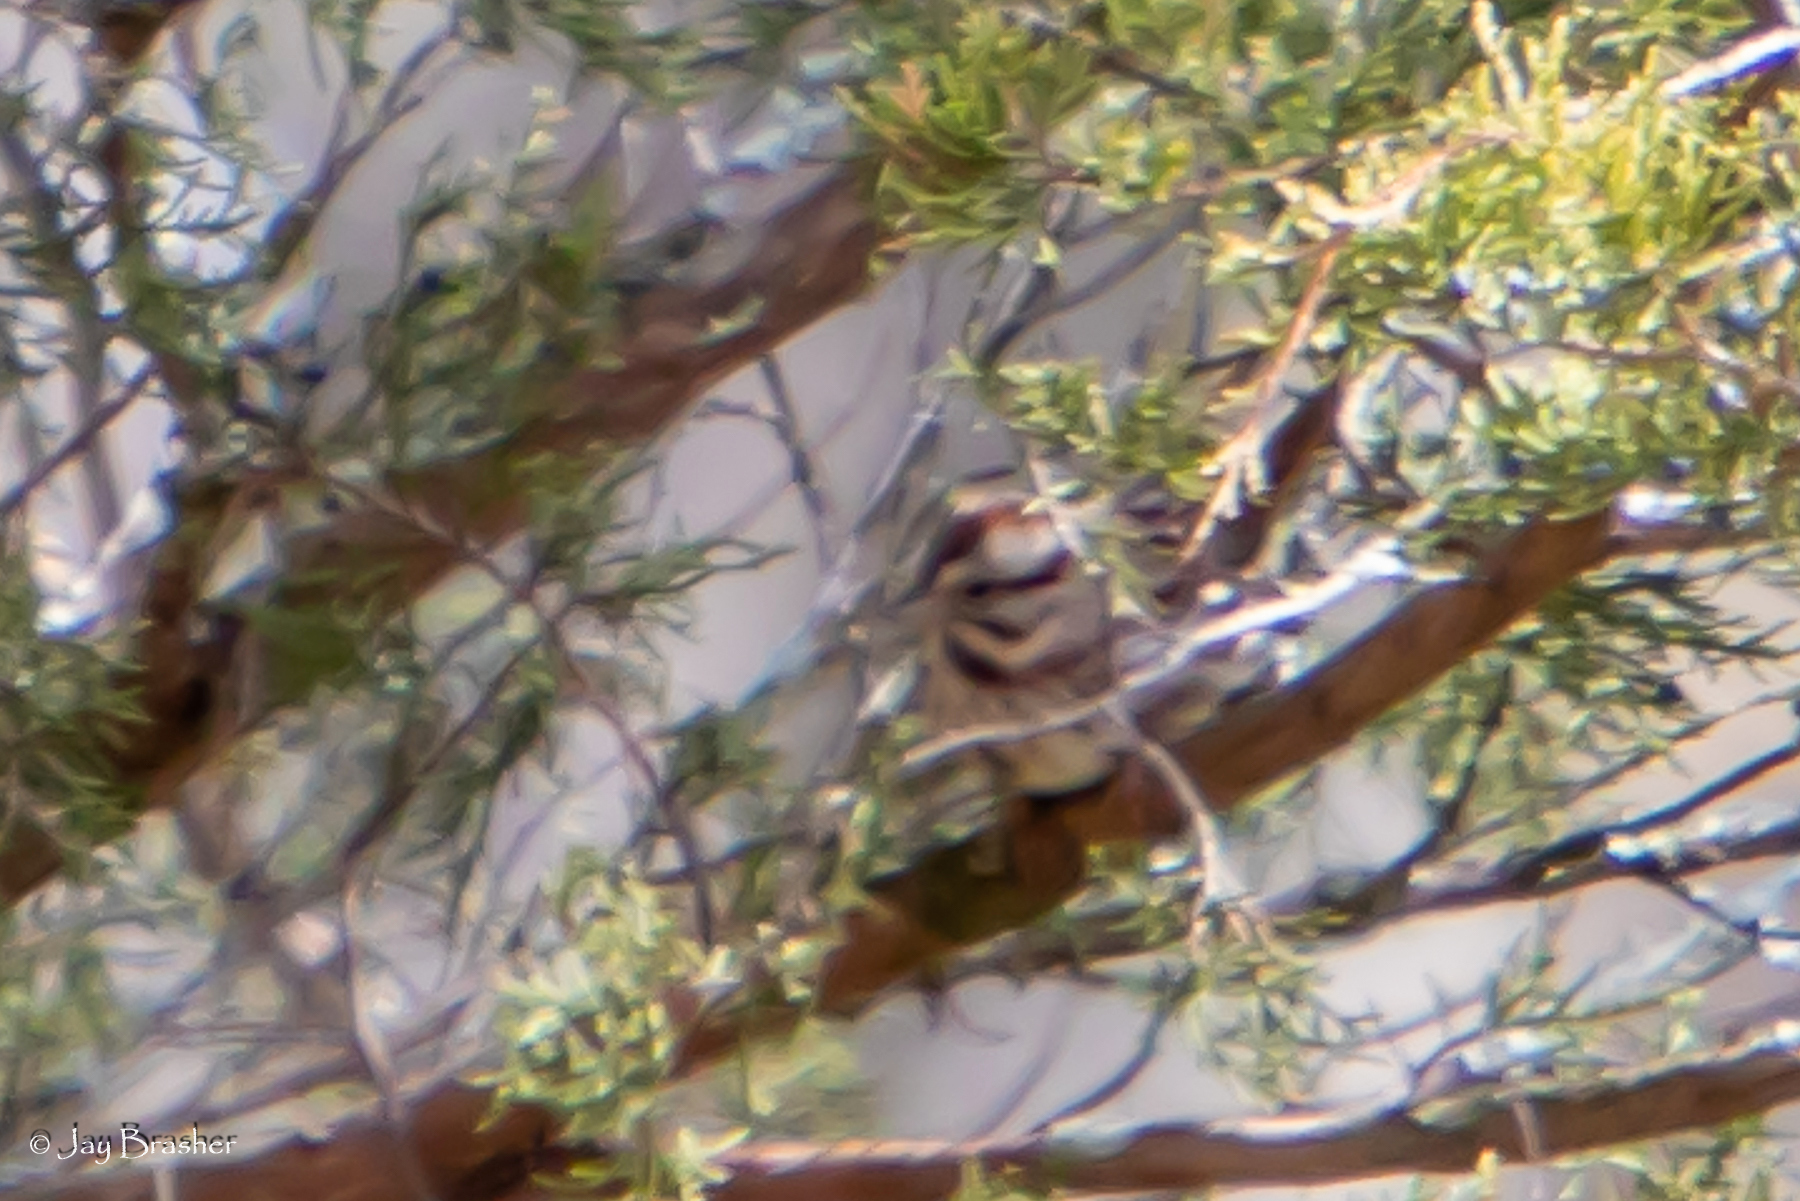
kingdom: Animalia
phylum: Chordata
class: Aves
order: Passeriformes
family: Passerellidae
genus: Melospiza
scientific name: Melospiza melodia
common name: Song sparrow
